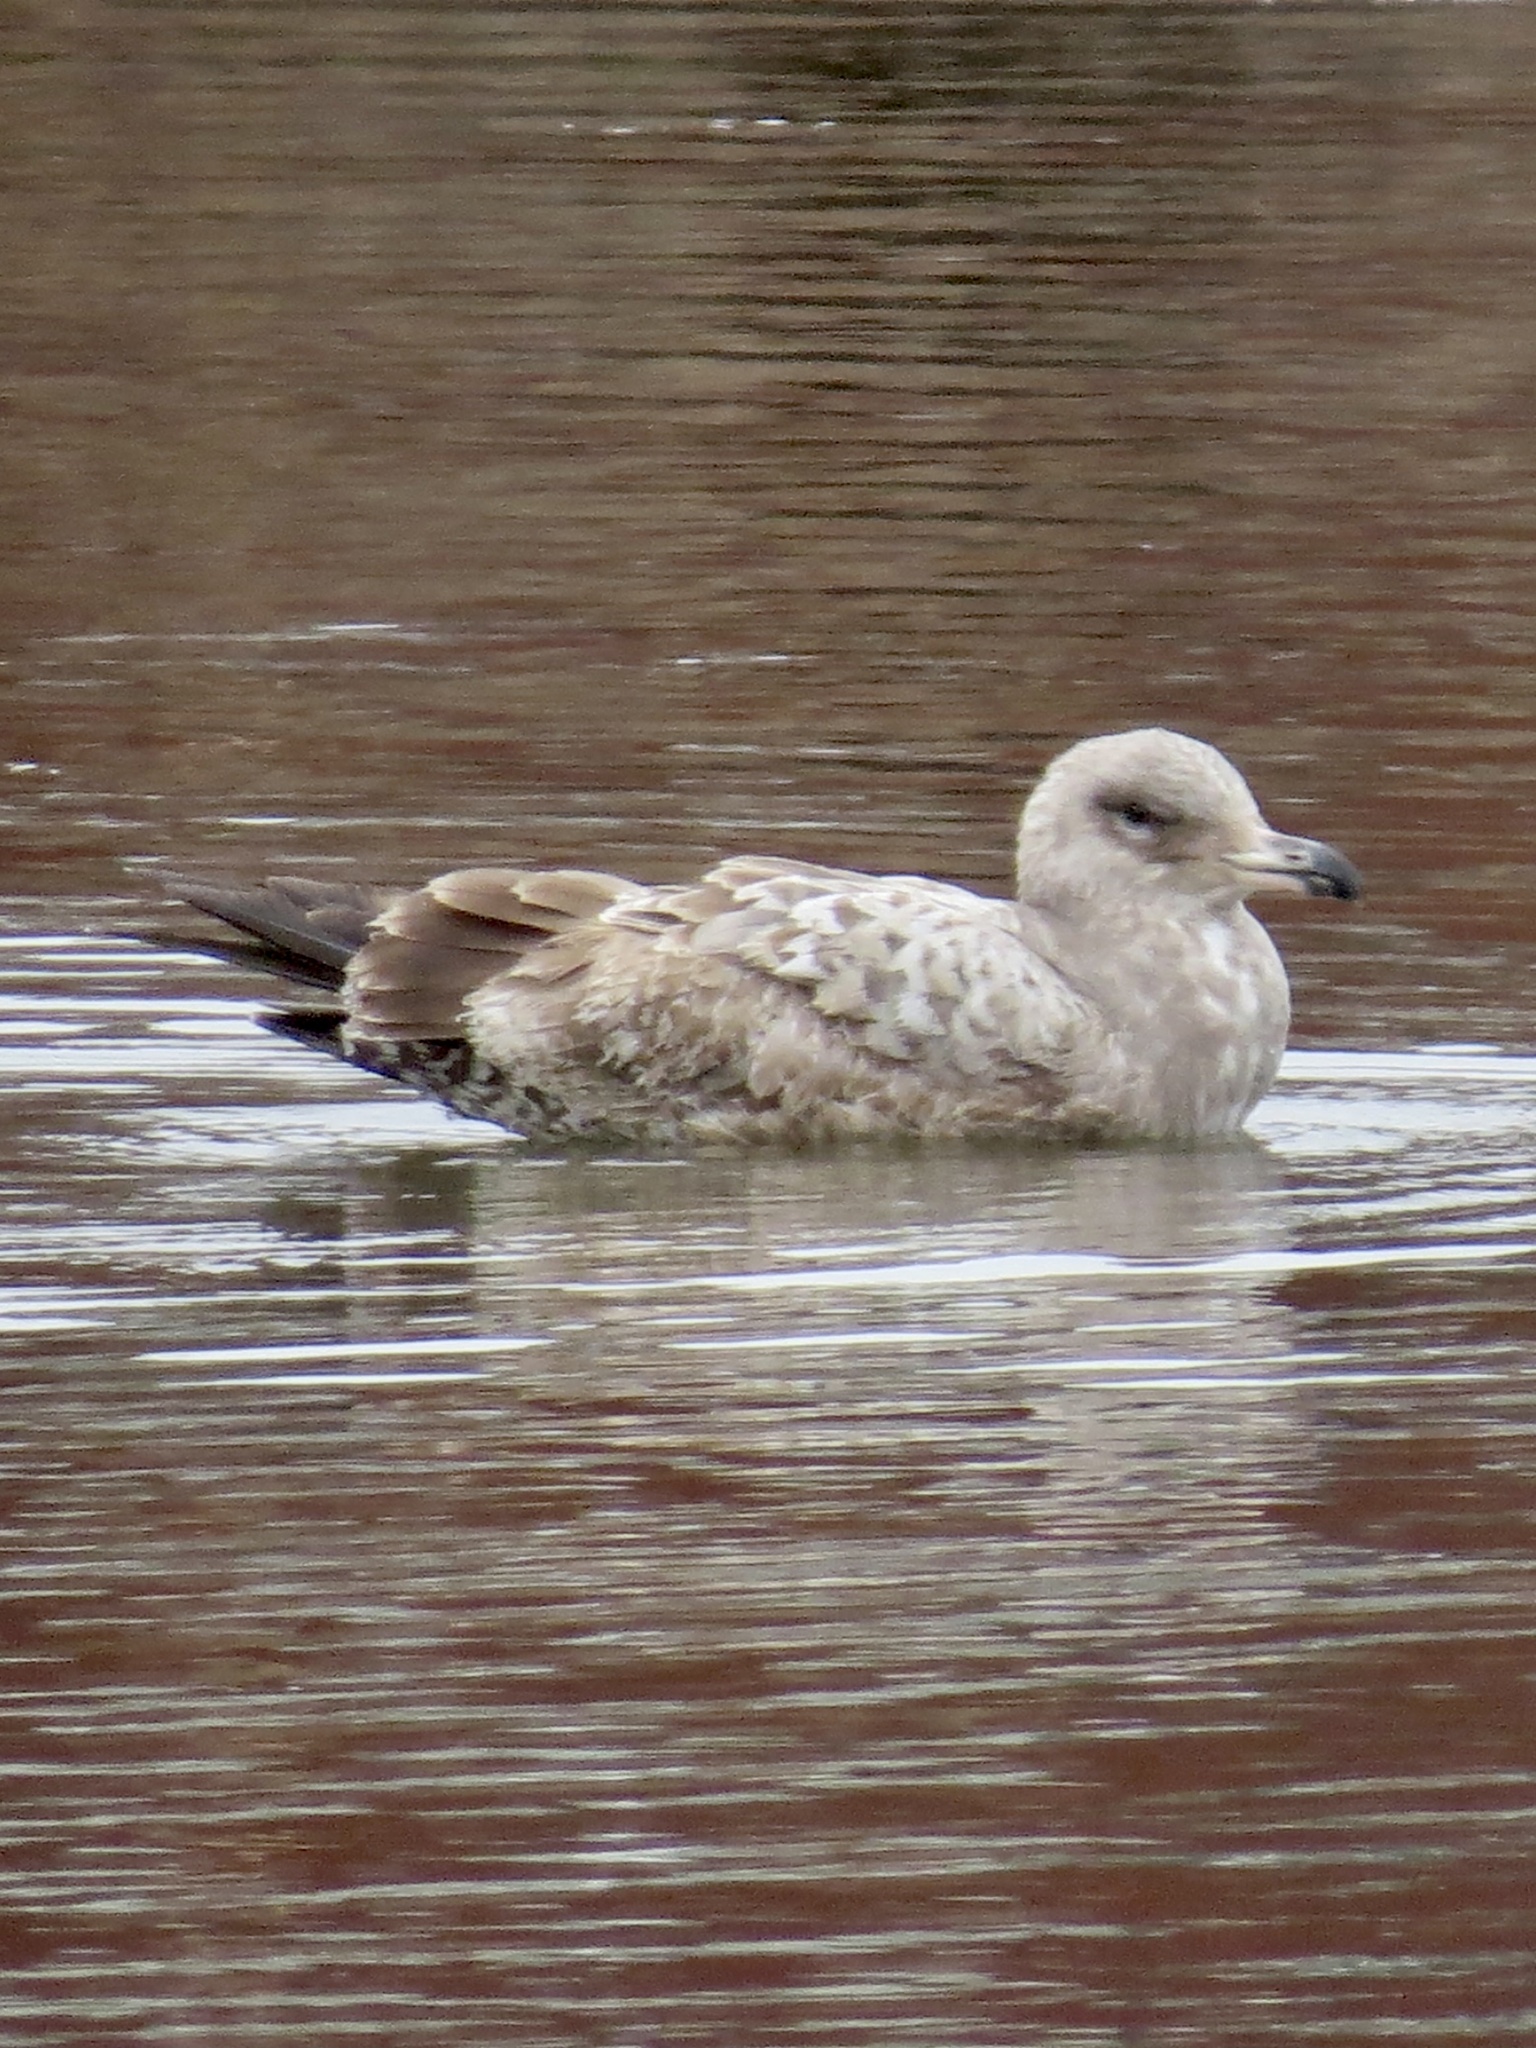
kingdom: Animalia
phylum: Chordata
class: Aves
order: Charadriiformes
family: Laridae
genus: Larus
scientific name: Larus argentatus
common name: Herring gull
